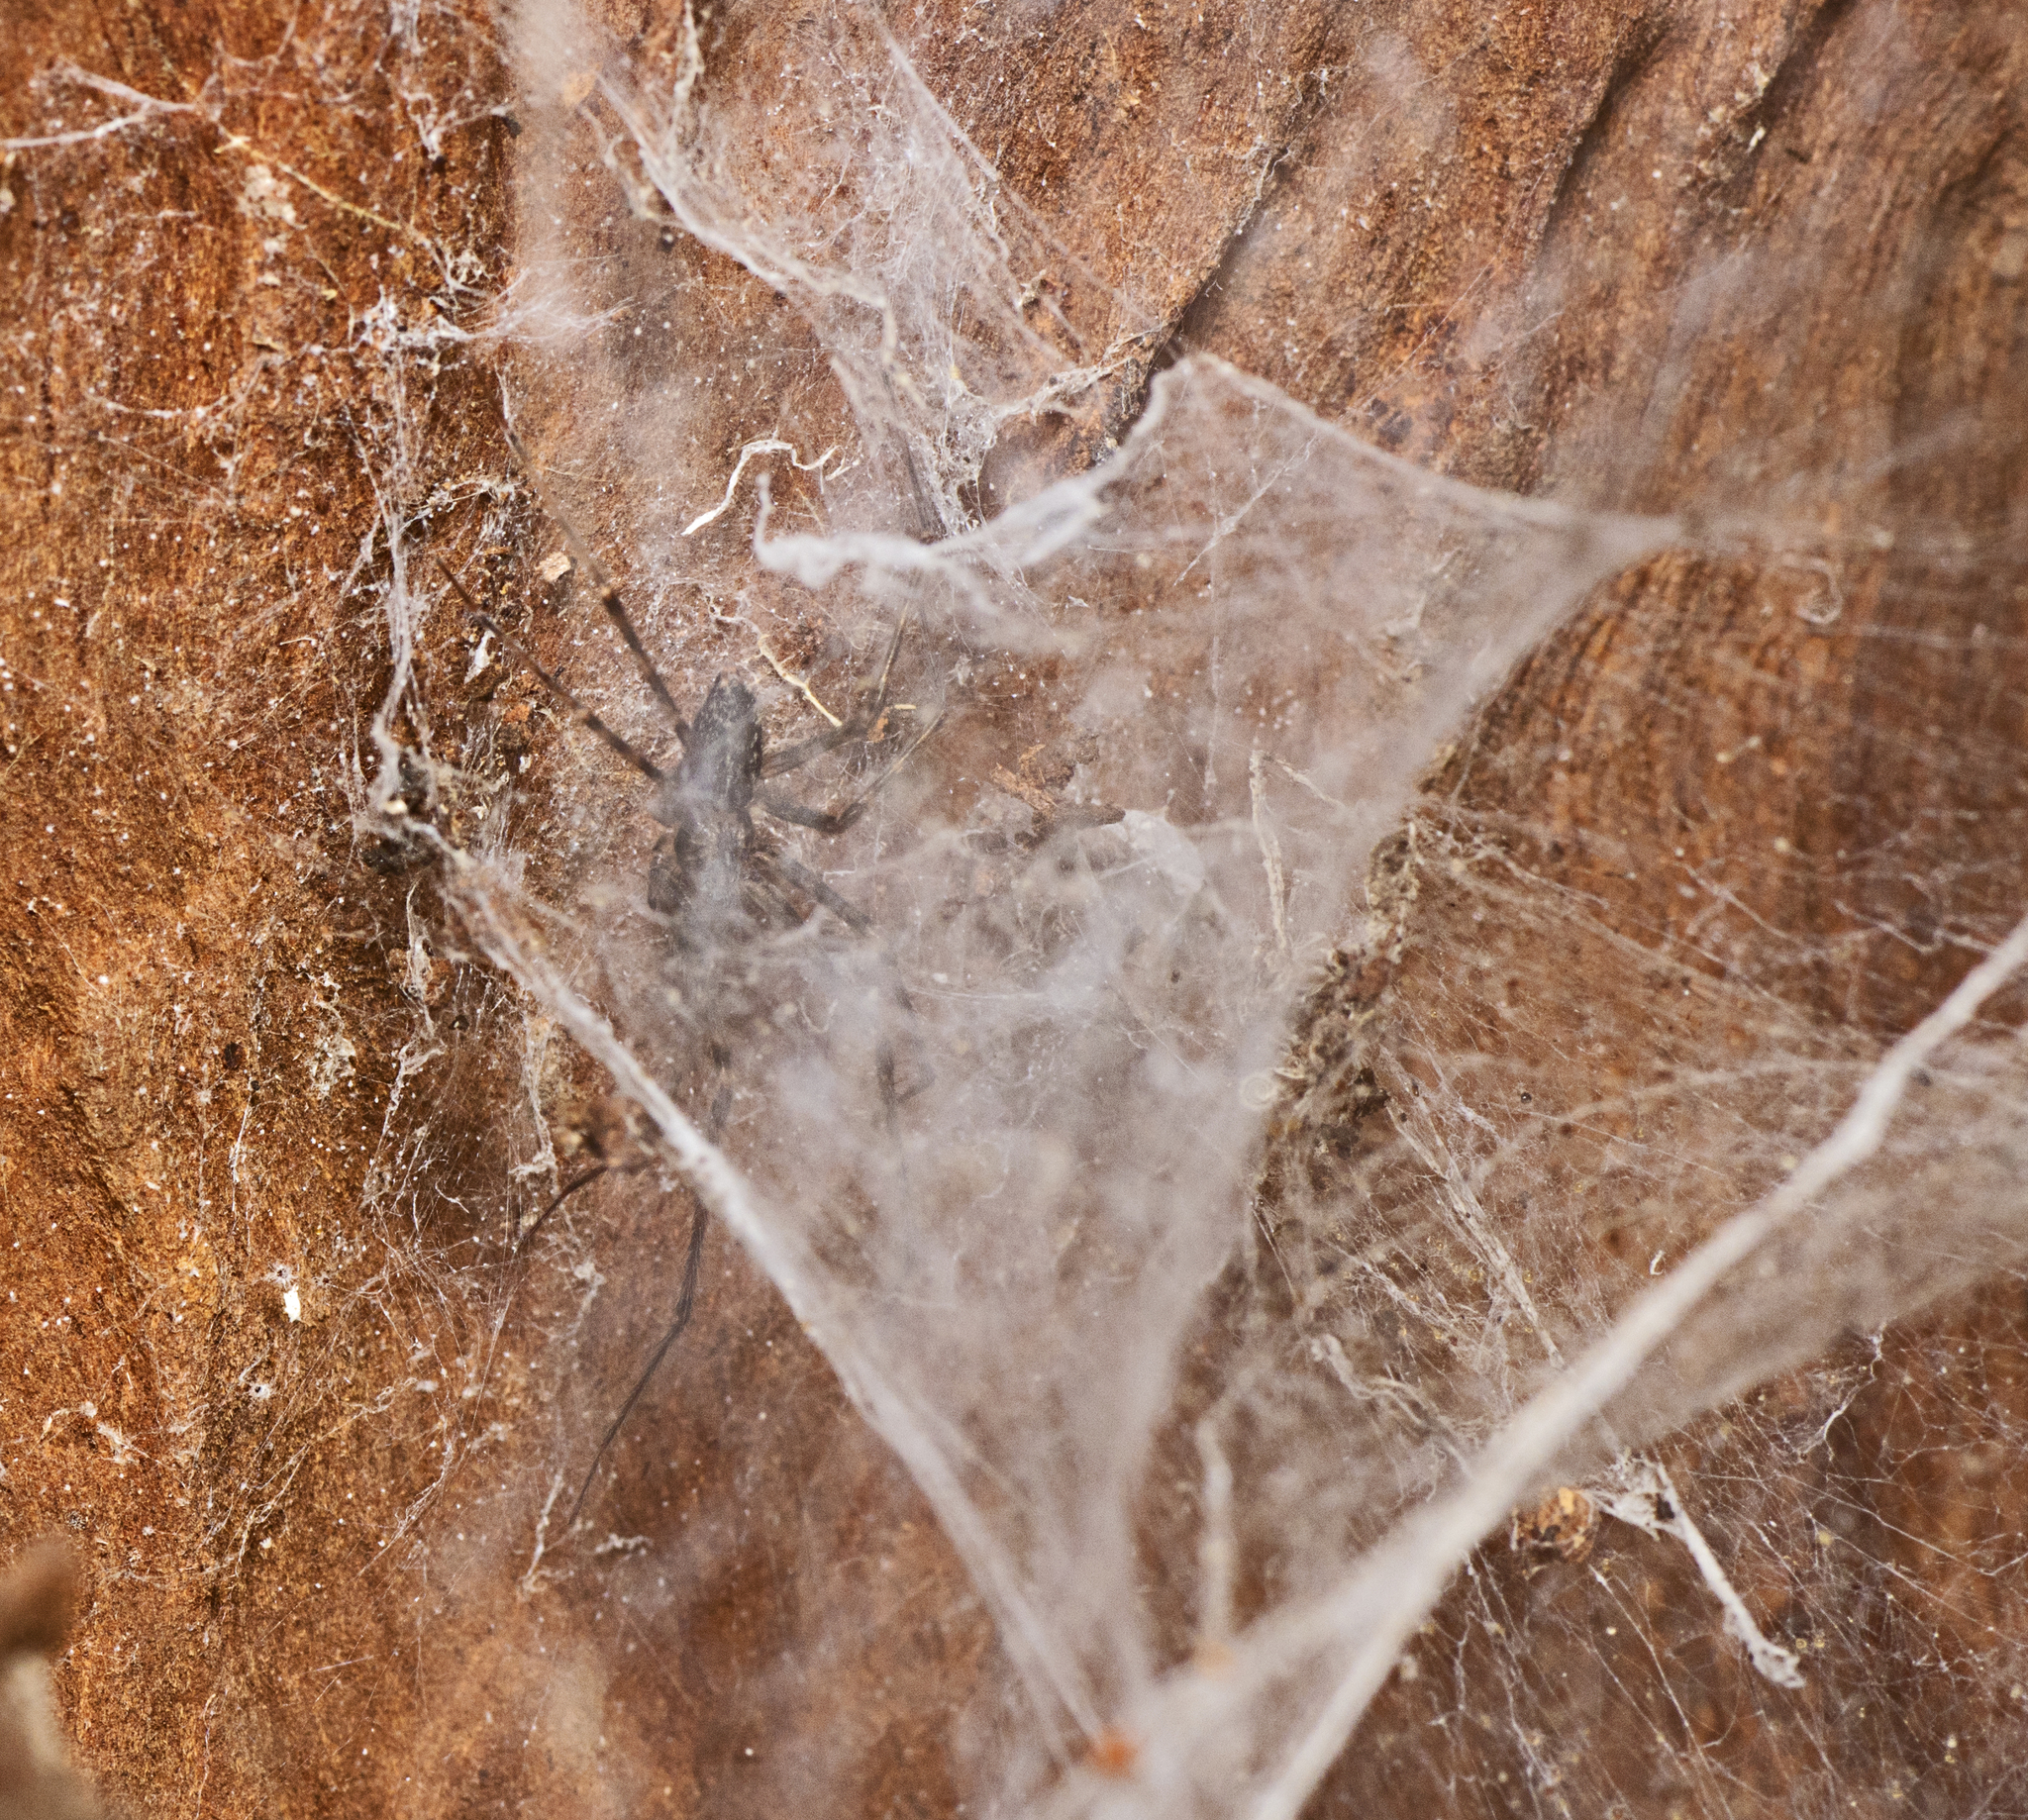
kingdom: Animalia
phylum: Arthropoda
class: Arachnida
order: Araneae
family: Stiphidiidae
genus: Stiphidion
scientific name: Stiphidion facetum
